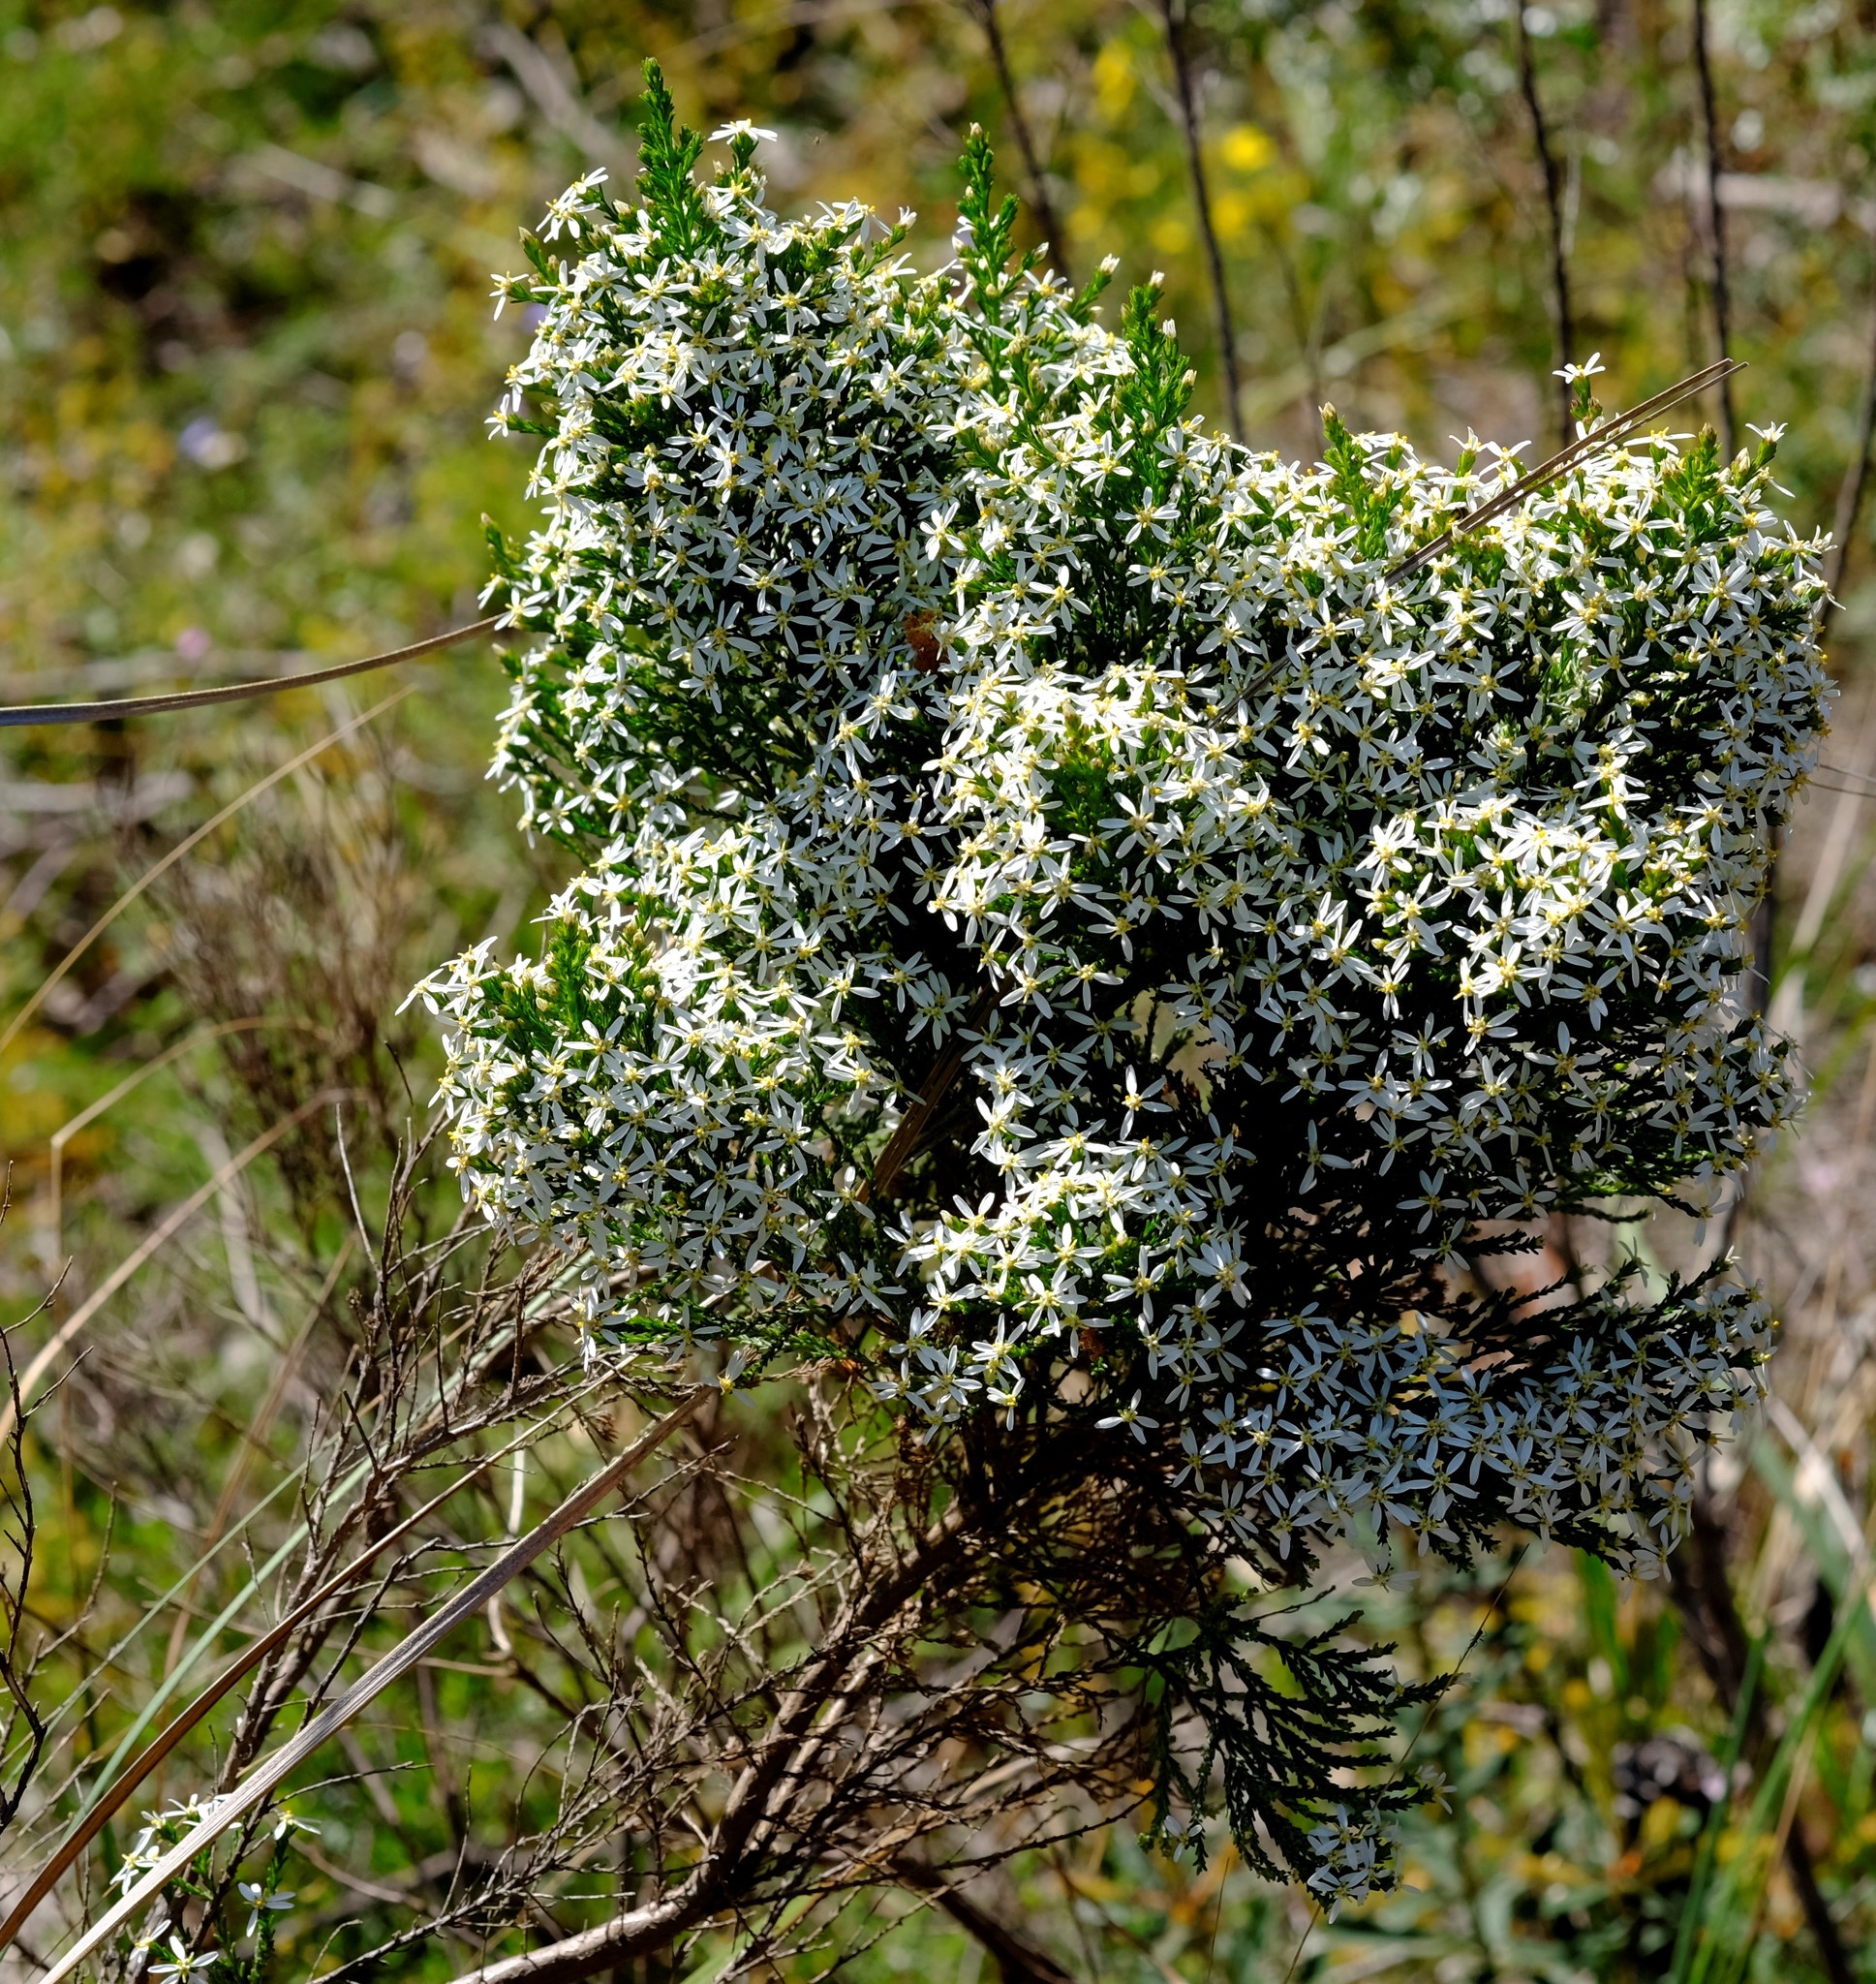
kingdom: Plantae
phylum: Tracheophyta
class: Magnoliopsida
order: Asterales
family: Asteraceae
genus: Olearia
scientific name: Olearia teretifolia
